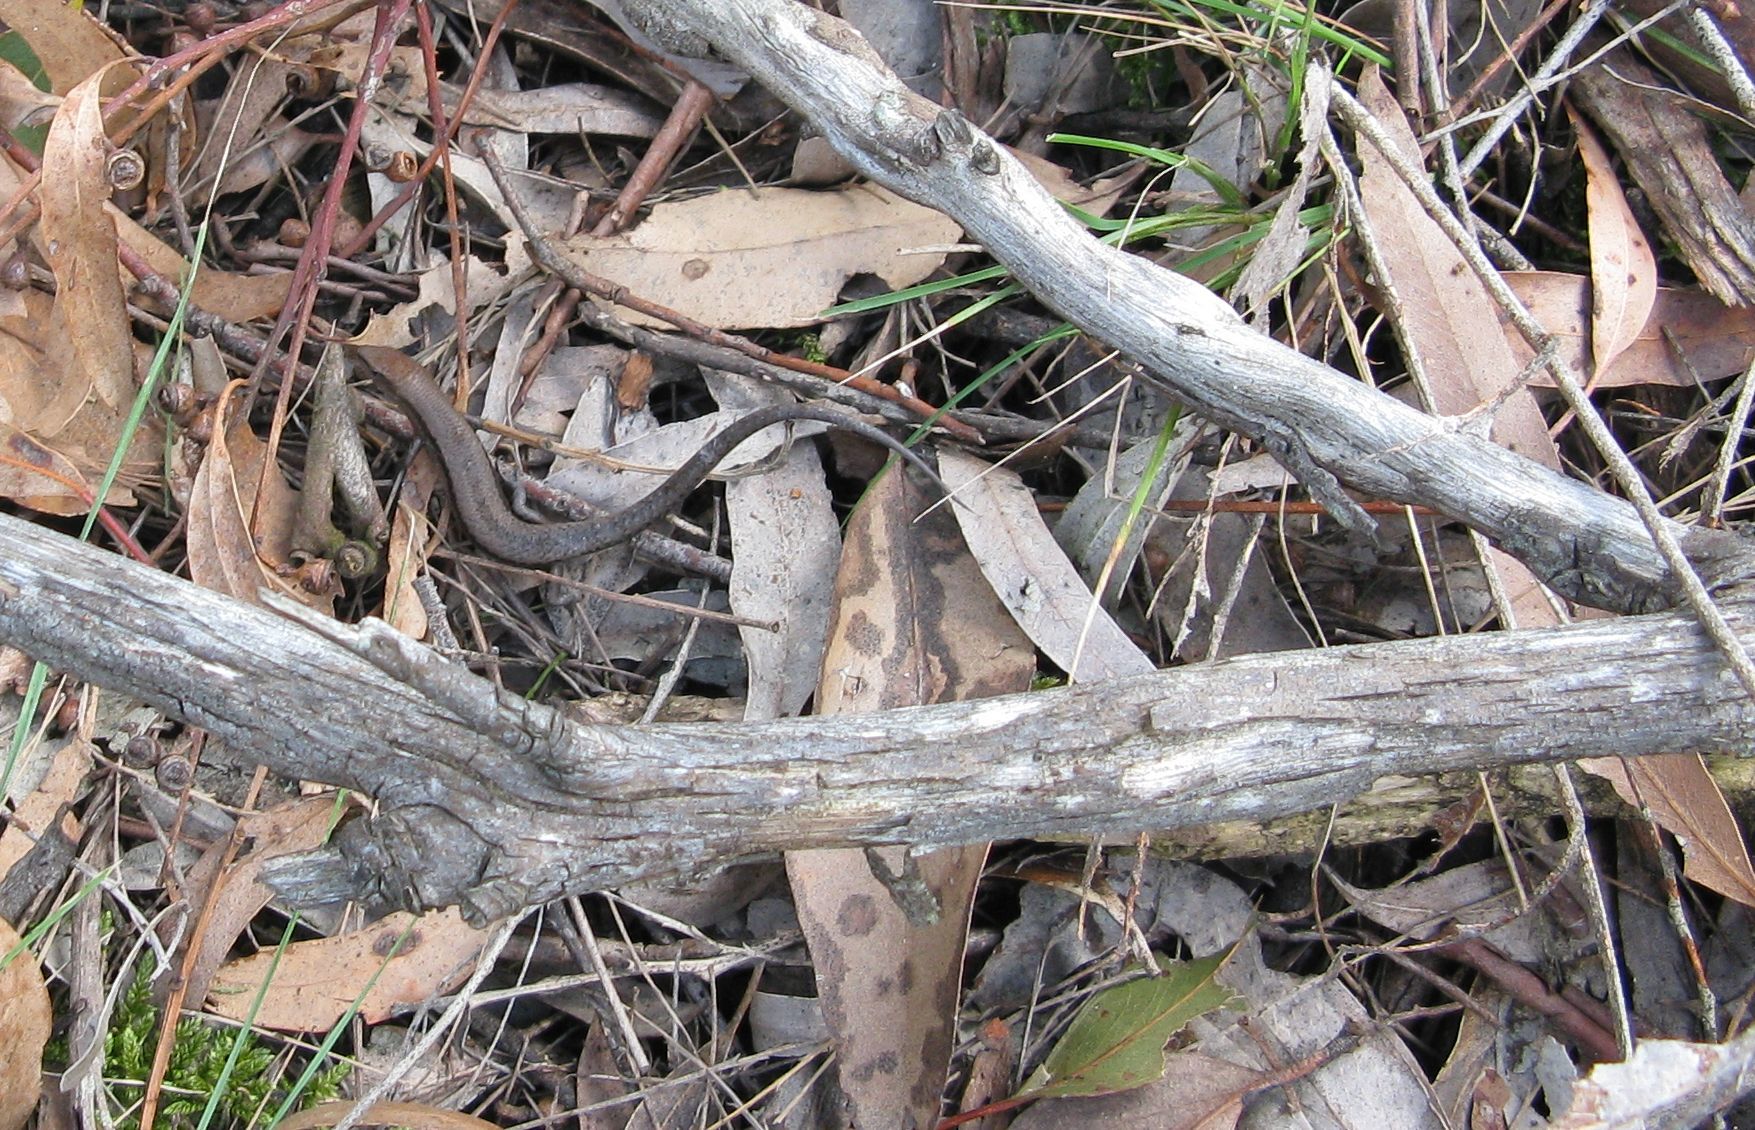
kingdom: Animalia
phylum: Chordata
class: Squamata
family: Scincidae
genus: Lampropholis
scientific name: Lampropholis guichenoti
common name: Garden skink
